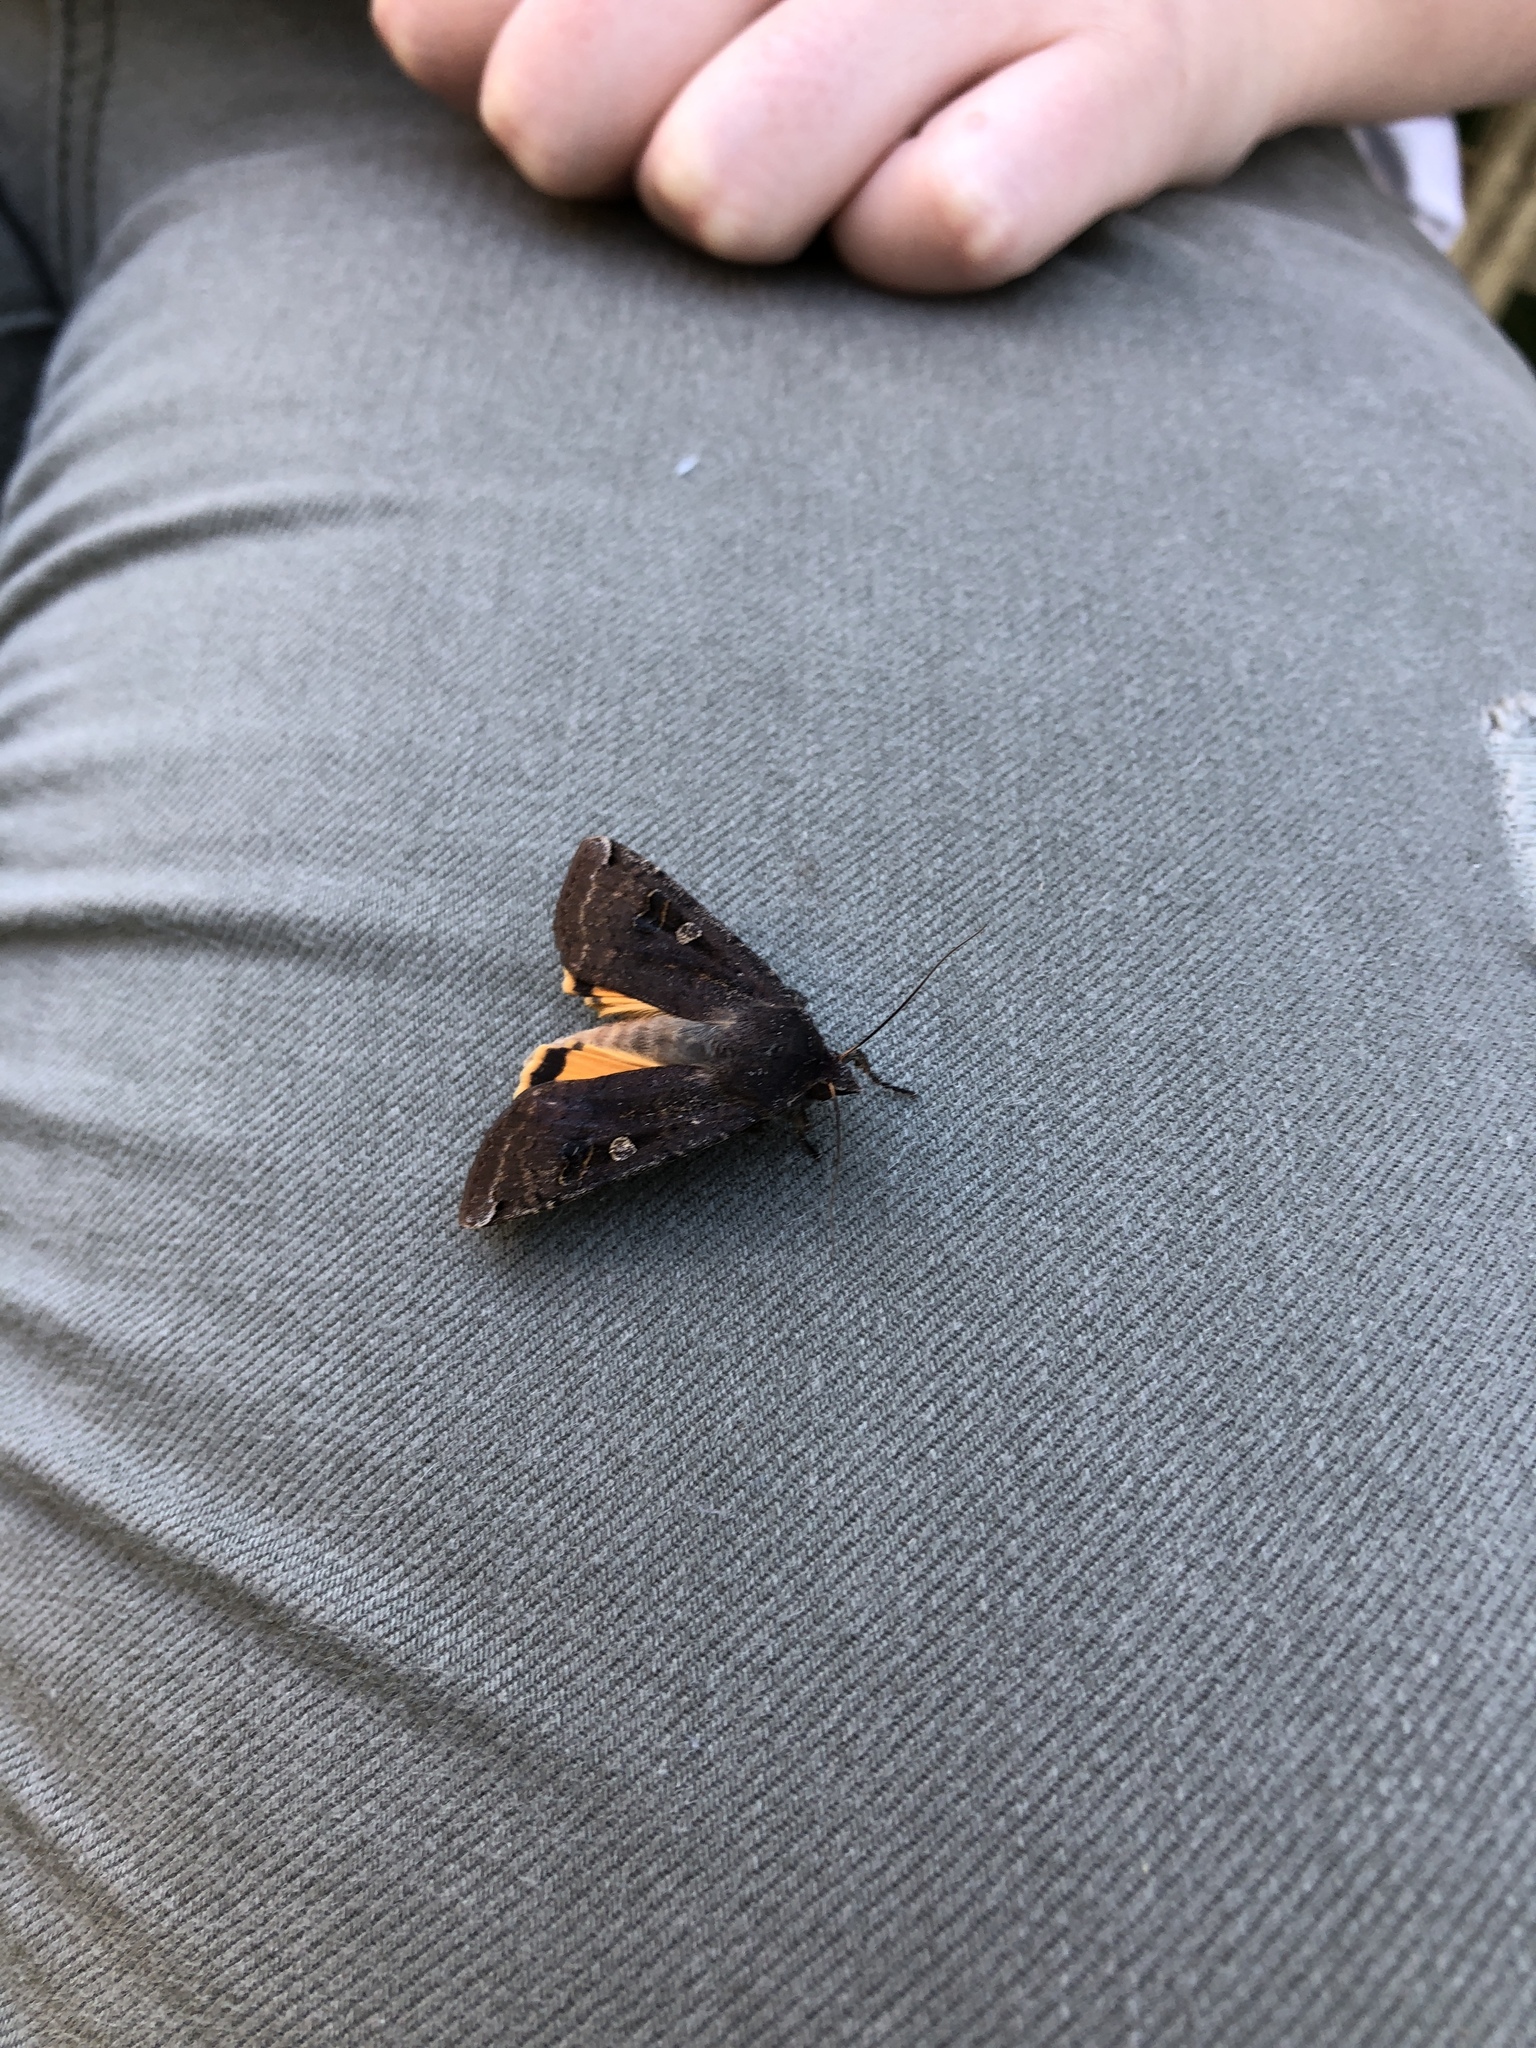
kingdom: Animalia
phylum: Arthropoda
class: Insecta
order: Lepidoptera
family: Noctuidae
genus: Noctua
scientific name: Noctua pronuba
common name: Large yellow underwing
